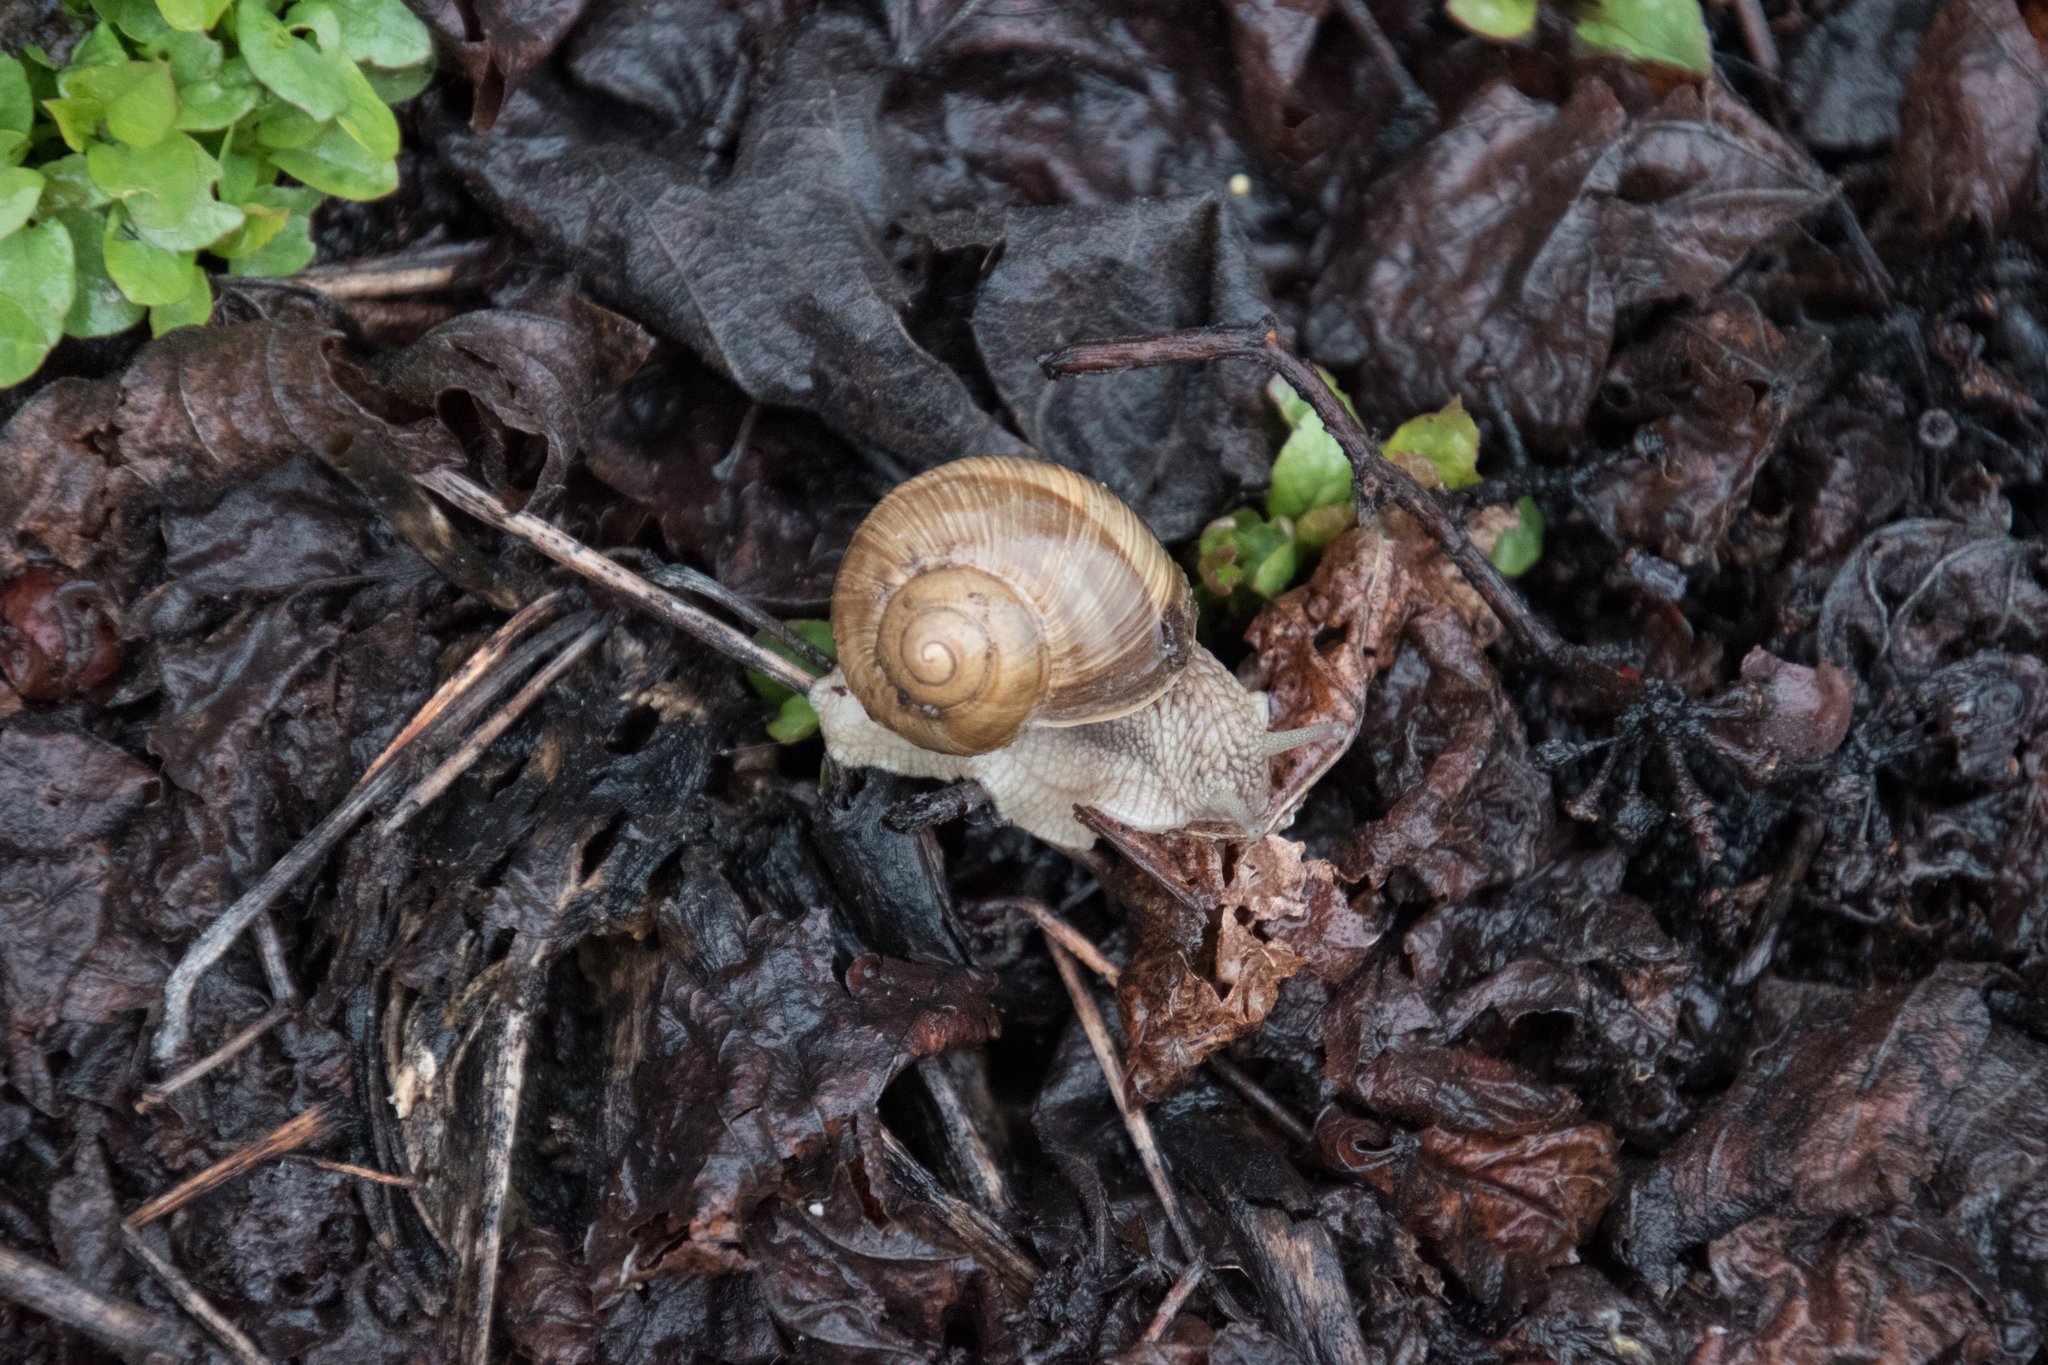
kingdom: Animalia
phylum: Mollusca
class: Gastropoda
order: Stylommatophora
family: Helicidae
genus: Helix
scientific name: Helix pomatia
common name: Roman snail
